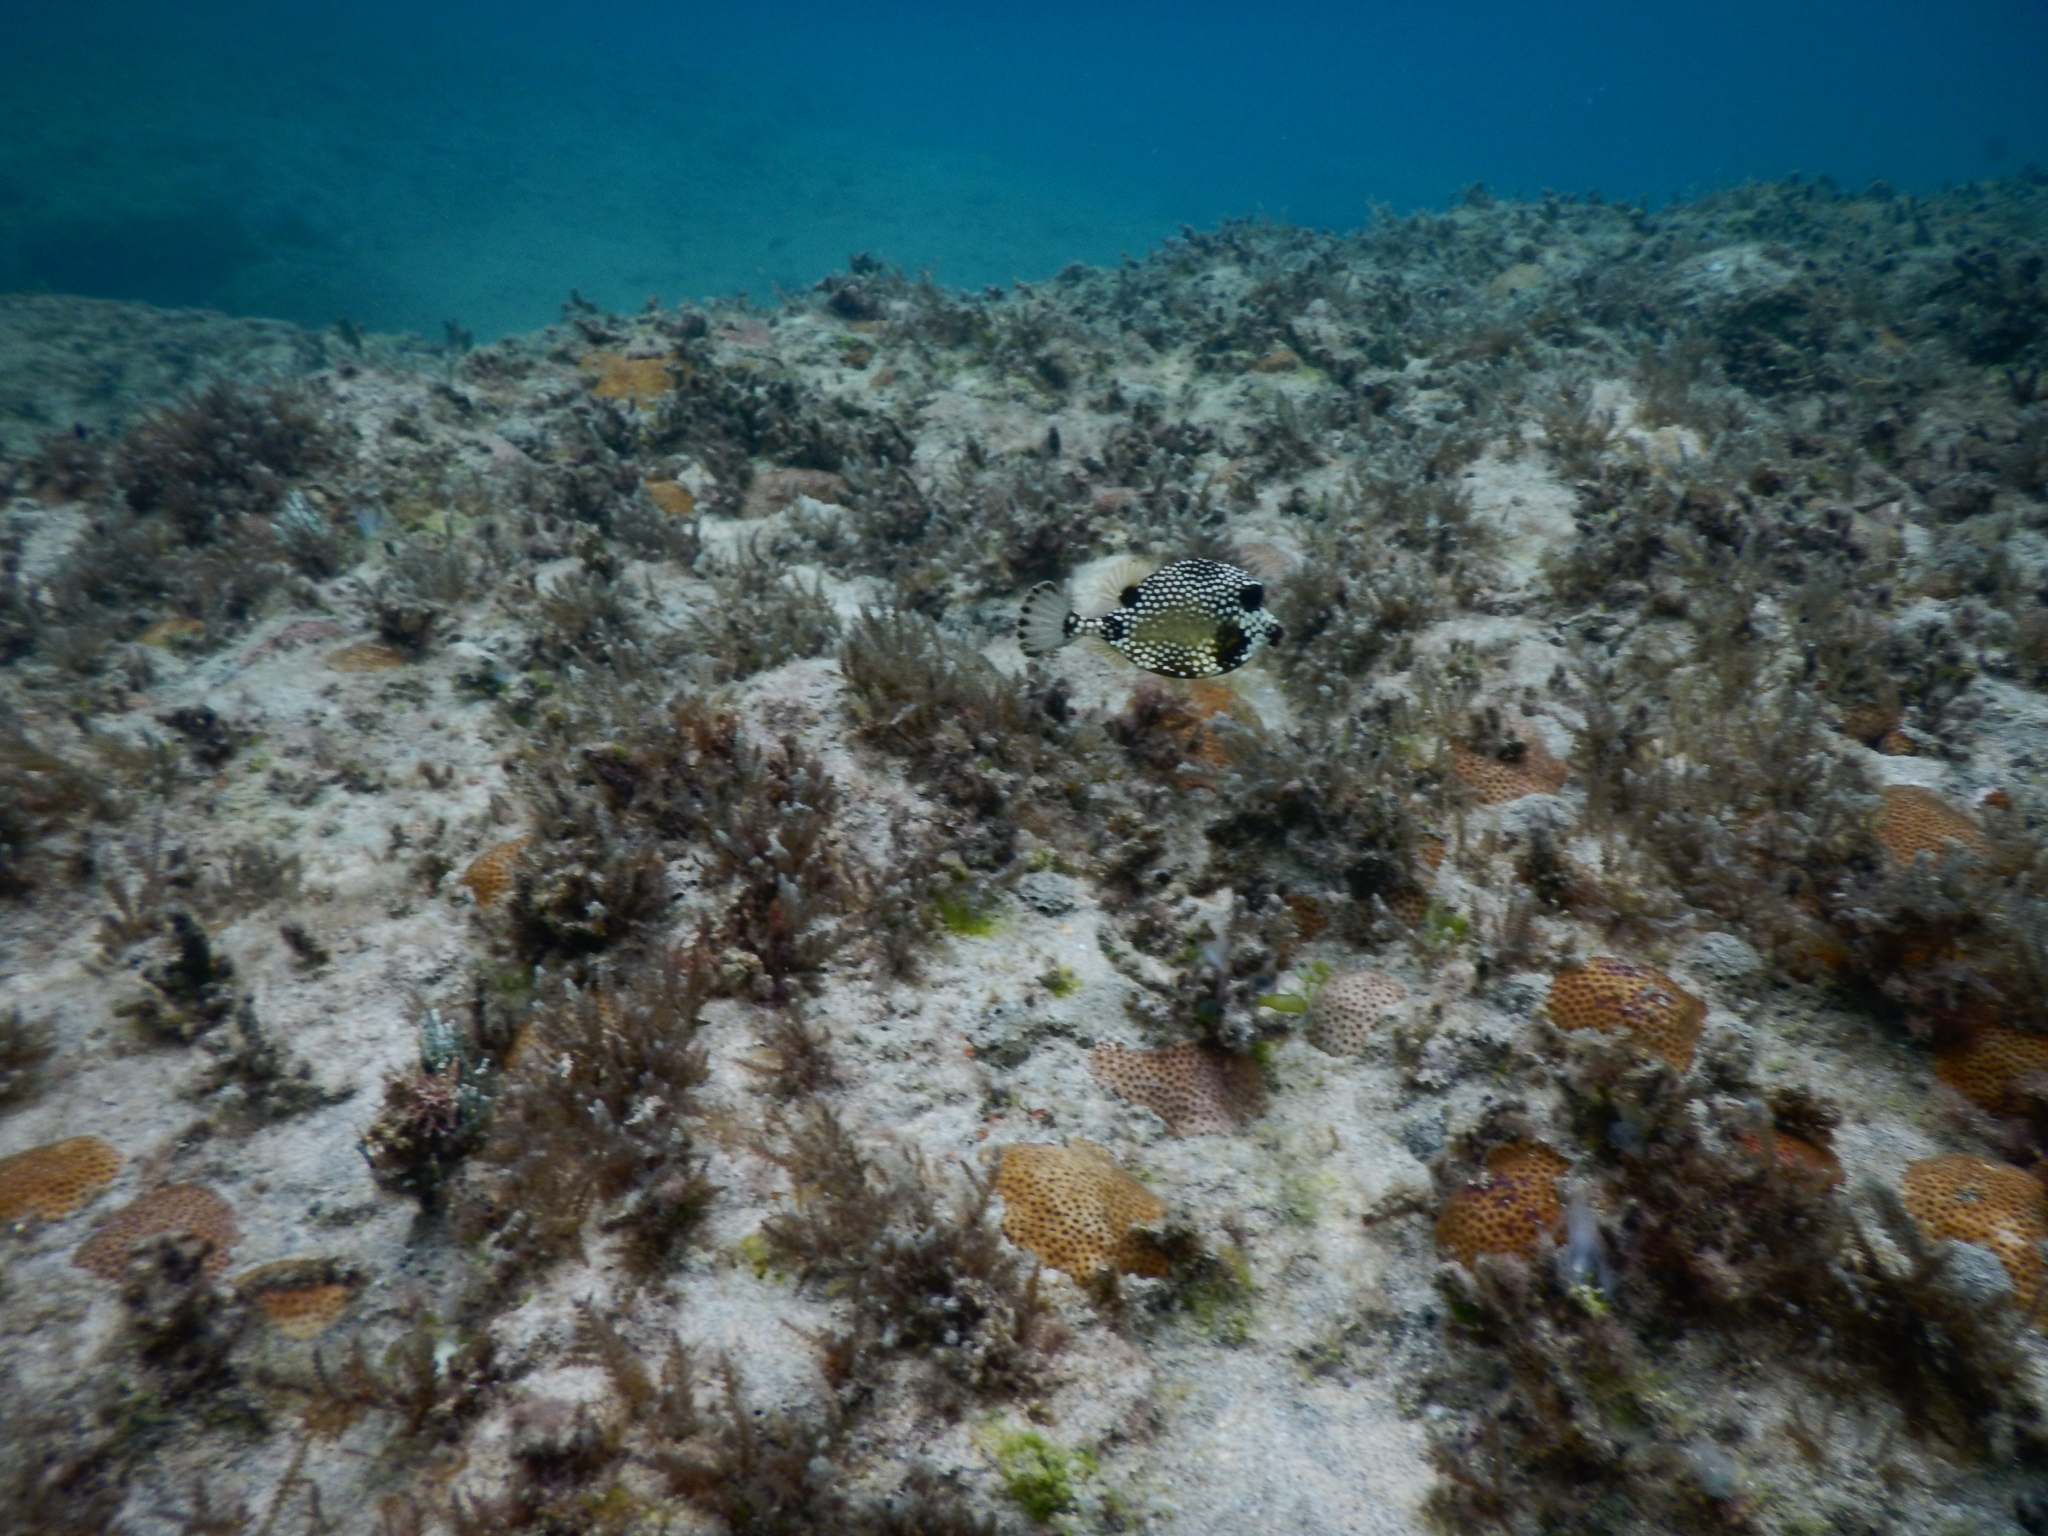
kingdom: Animalia
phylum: Chordata
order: Tetraodontiformes
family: Ostraciidae
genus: Lactophrys
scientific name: Lactophrys triqueter
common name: Smooth trunkfish
